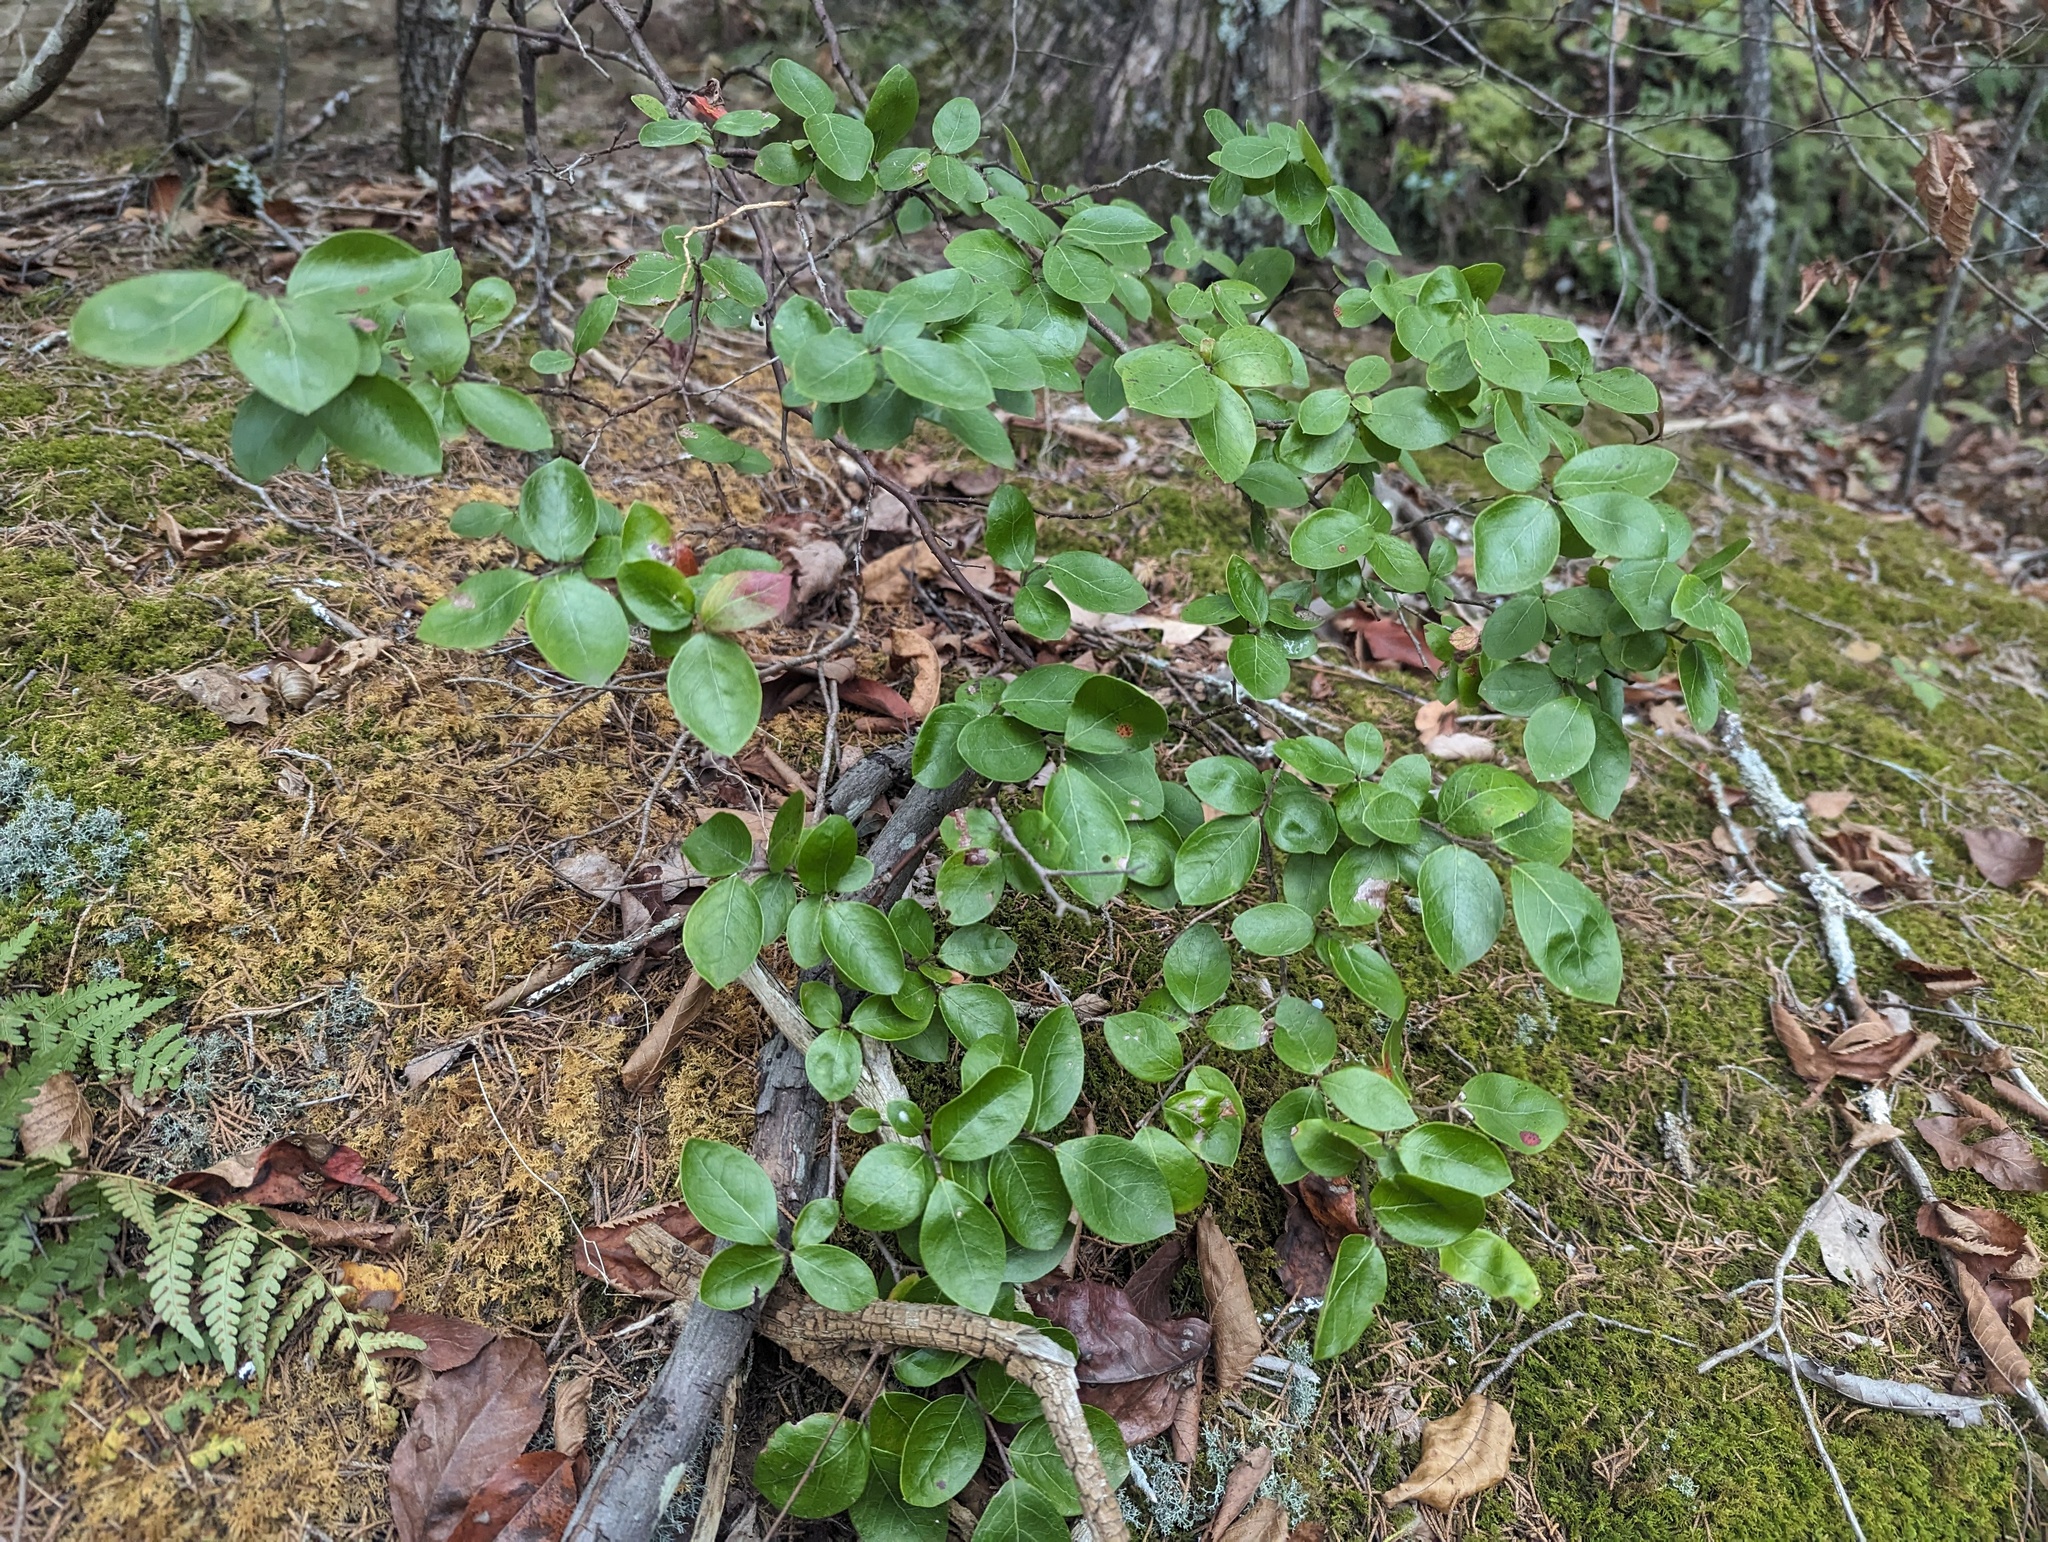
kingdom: Plantae
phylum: Tracheophyta
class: Magnoliopsida
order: Ericales
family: Ericaceae
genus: Vaccinium
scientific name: Vaccinium pallidum
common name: Blue ridge blueberry
